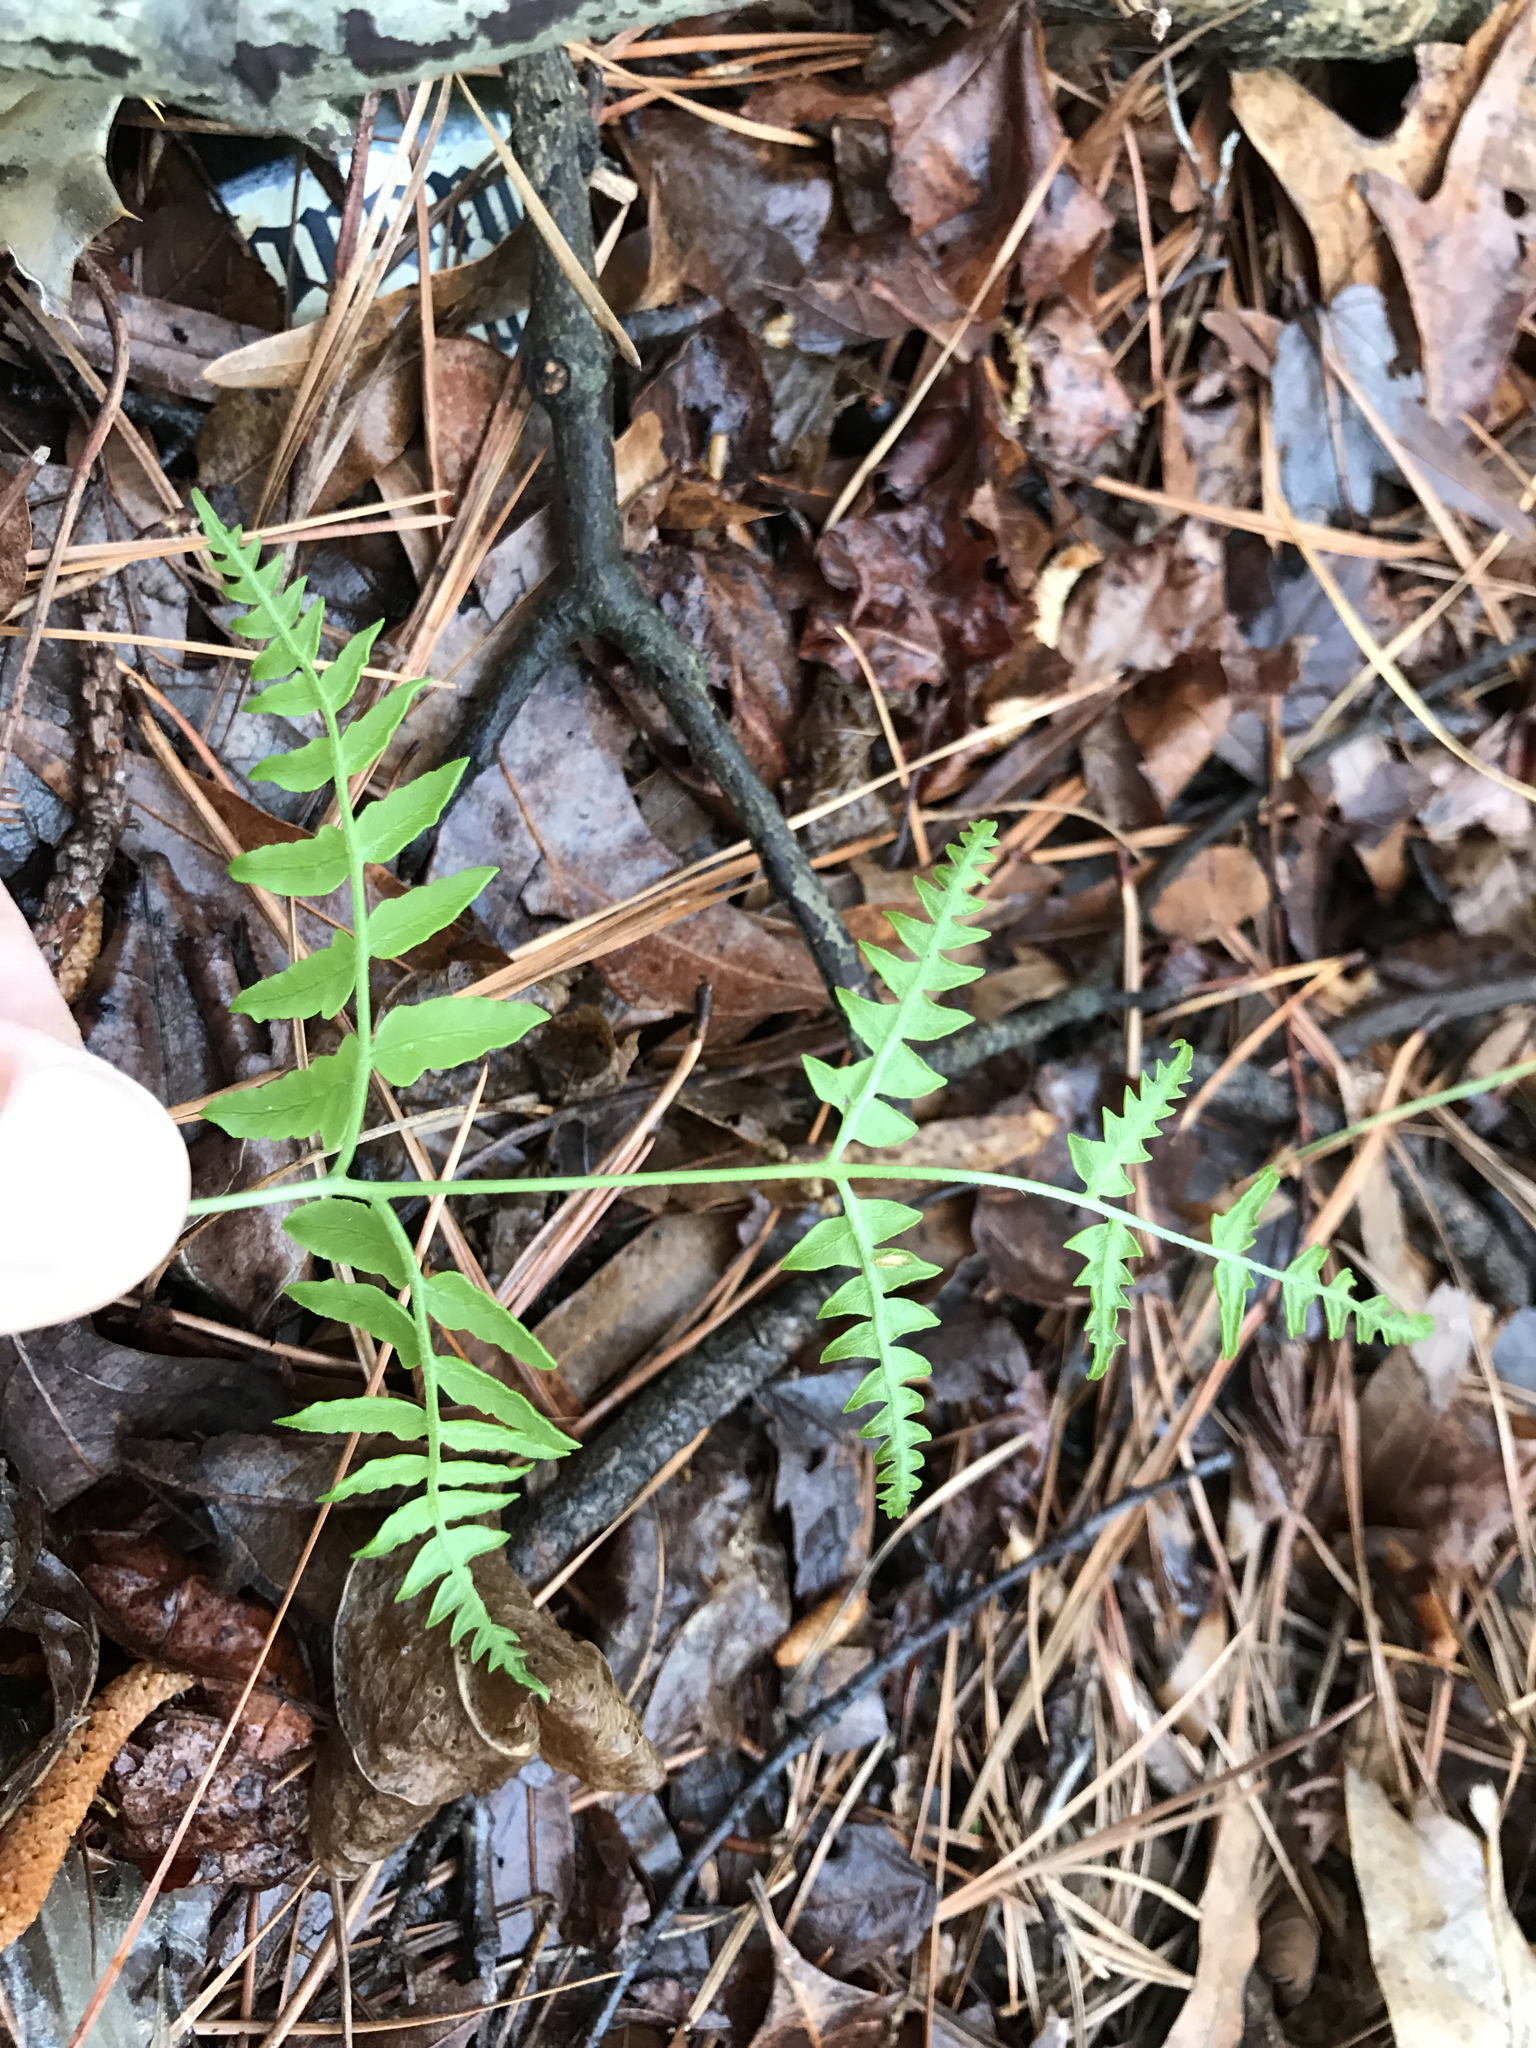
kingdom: Plantae
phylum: Tracheophyta
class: Polypodiopsida
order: Polypodiales
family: Dennstaedtiaceae
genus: Pteridium
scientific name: Pteridium aquilinum
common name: Bracken
